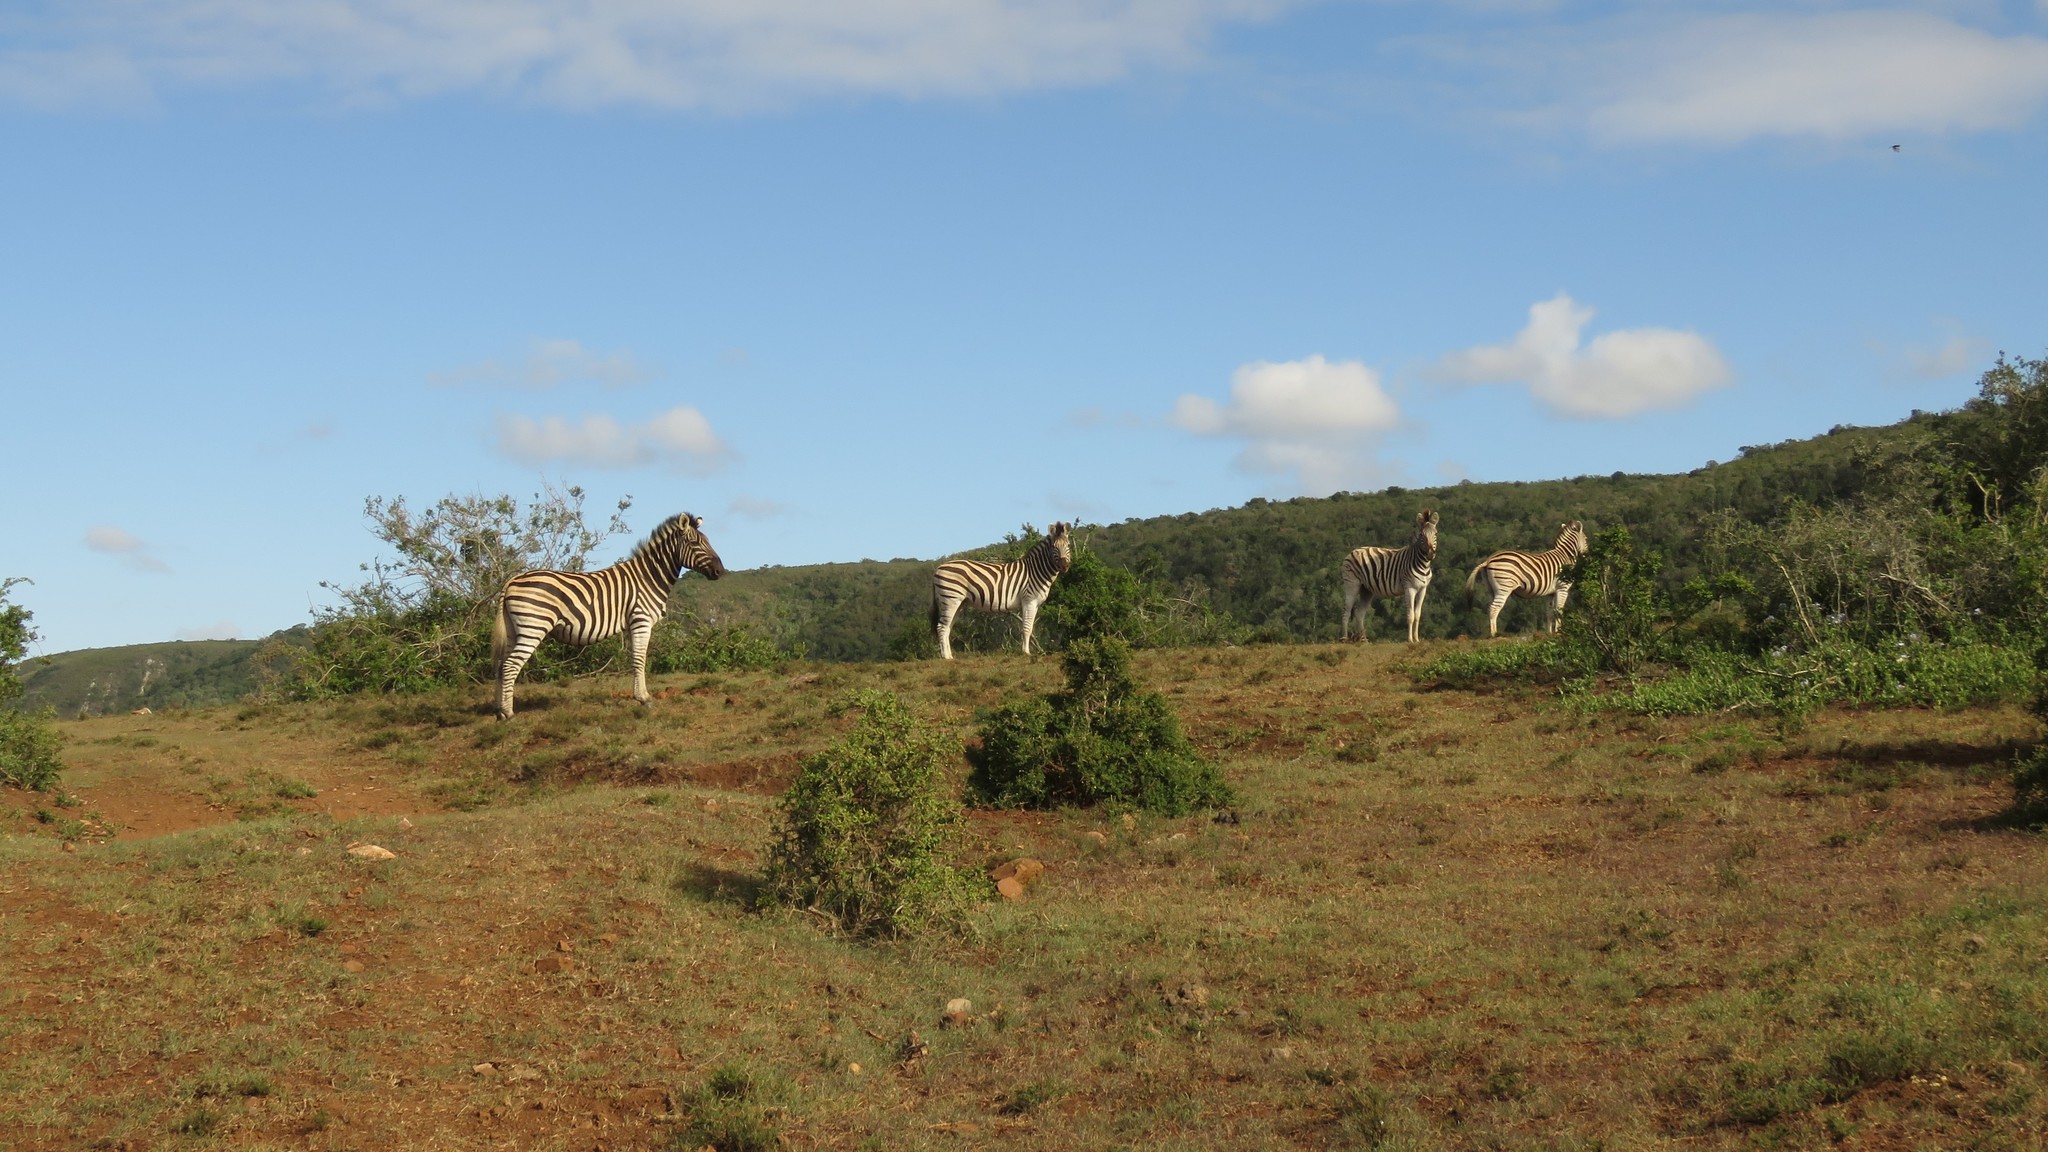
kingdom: Animalia
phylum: Chordata
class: Mammalia
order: Perissodactyla
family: Equidae
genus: Equus
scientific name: Equus quagga
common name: Plains zebra
